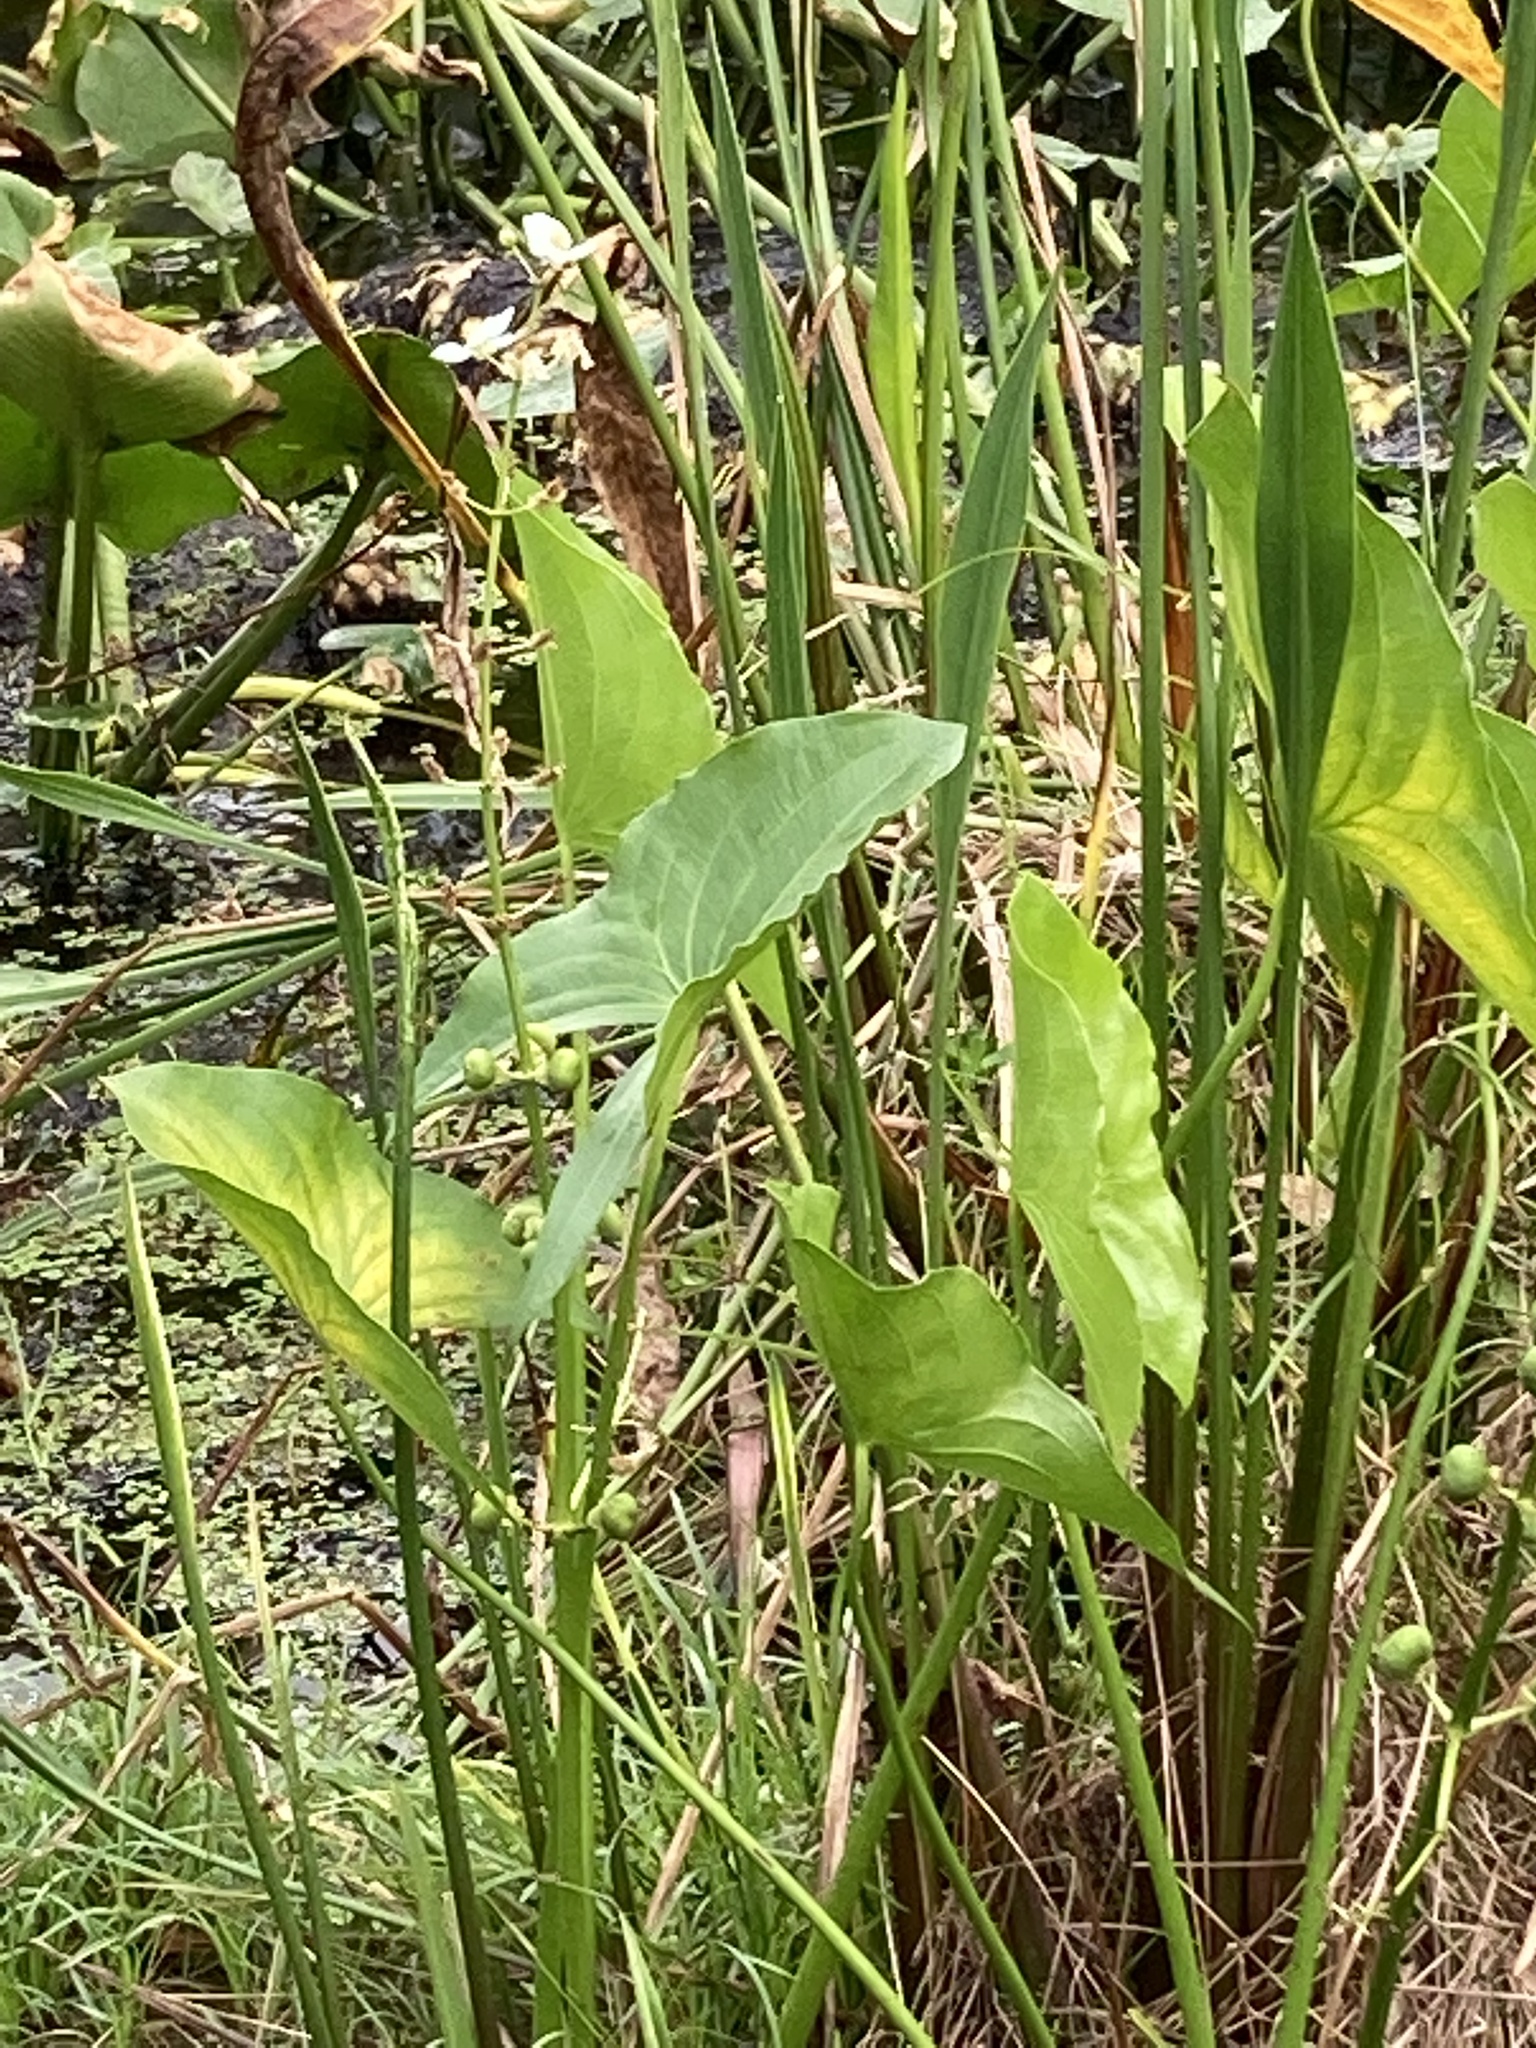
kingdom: Plantae
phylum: Tracheophyta
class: Liliopsida
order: Alismatales
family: Alismataceae
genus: Sagittaria
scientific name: Sagittaria latifolia
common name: Duck-potato
